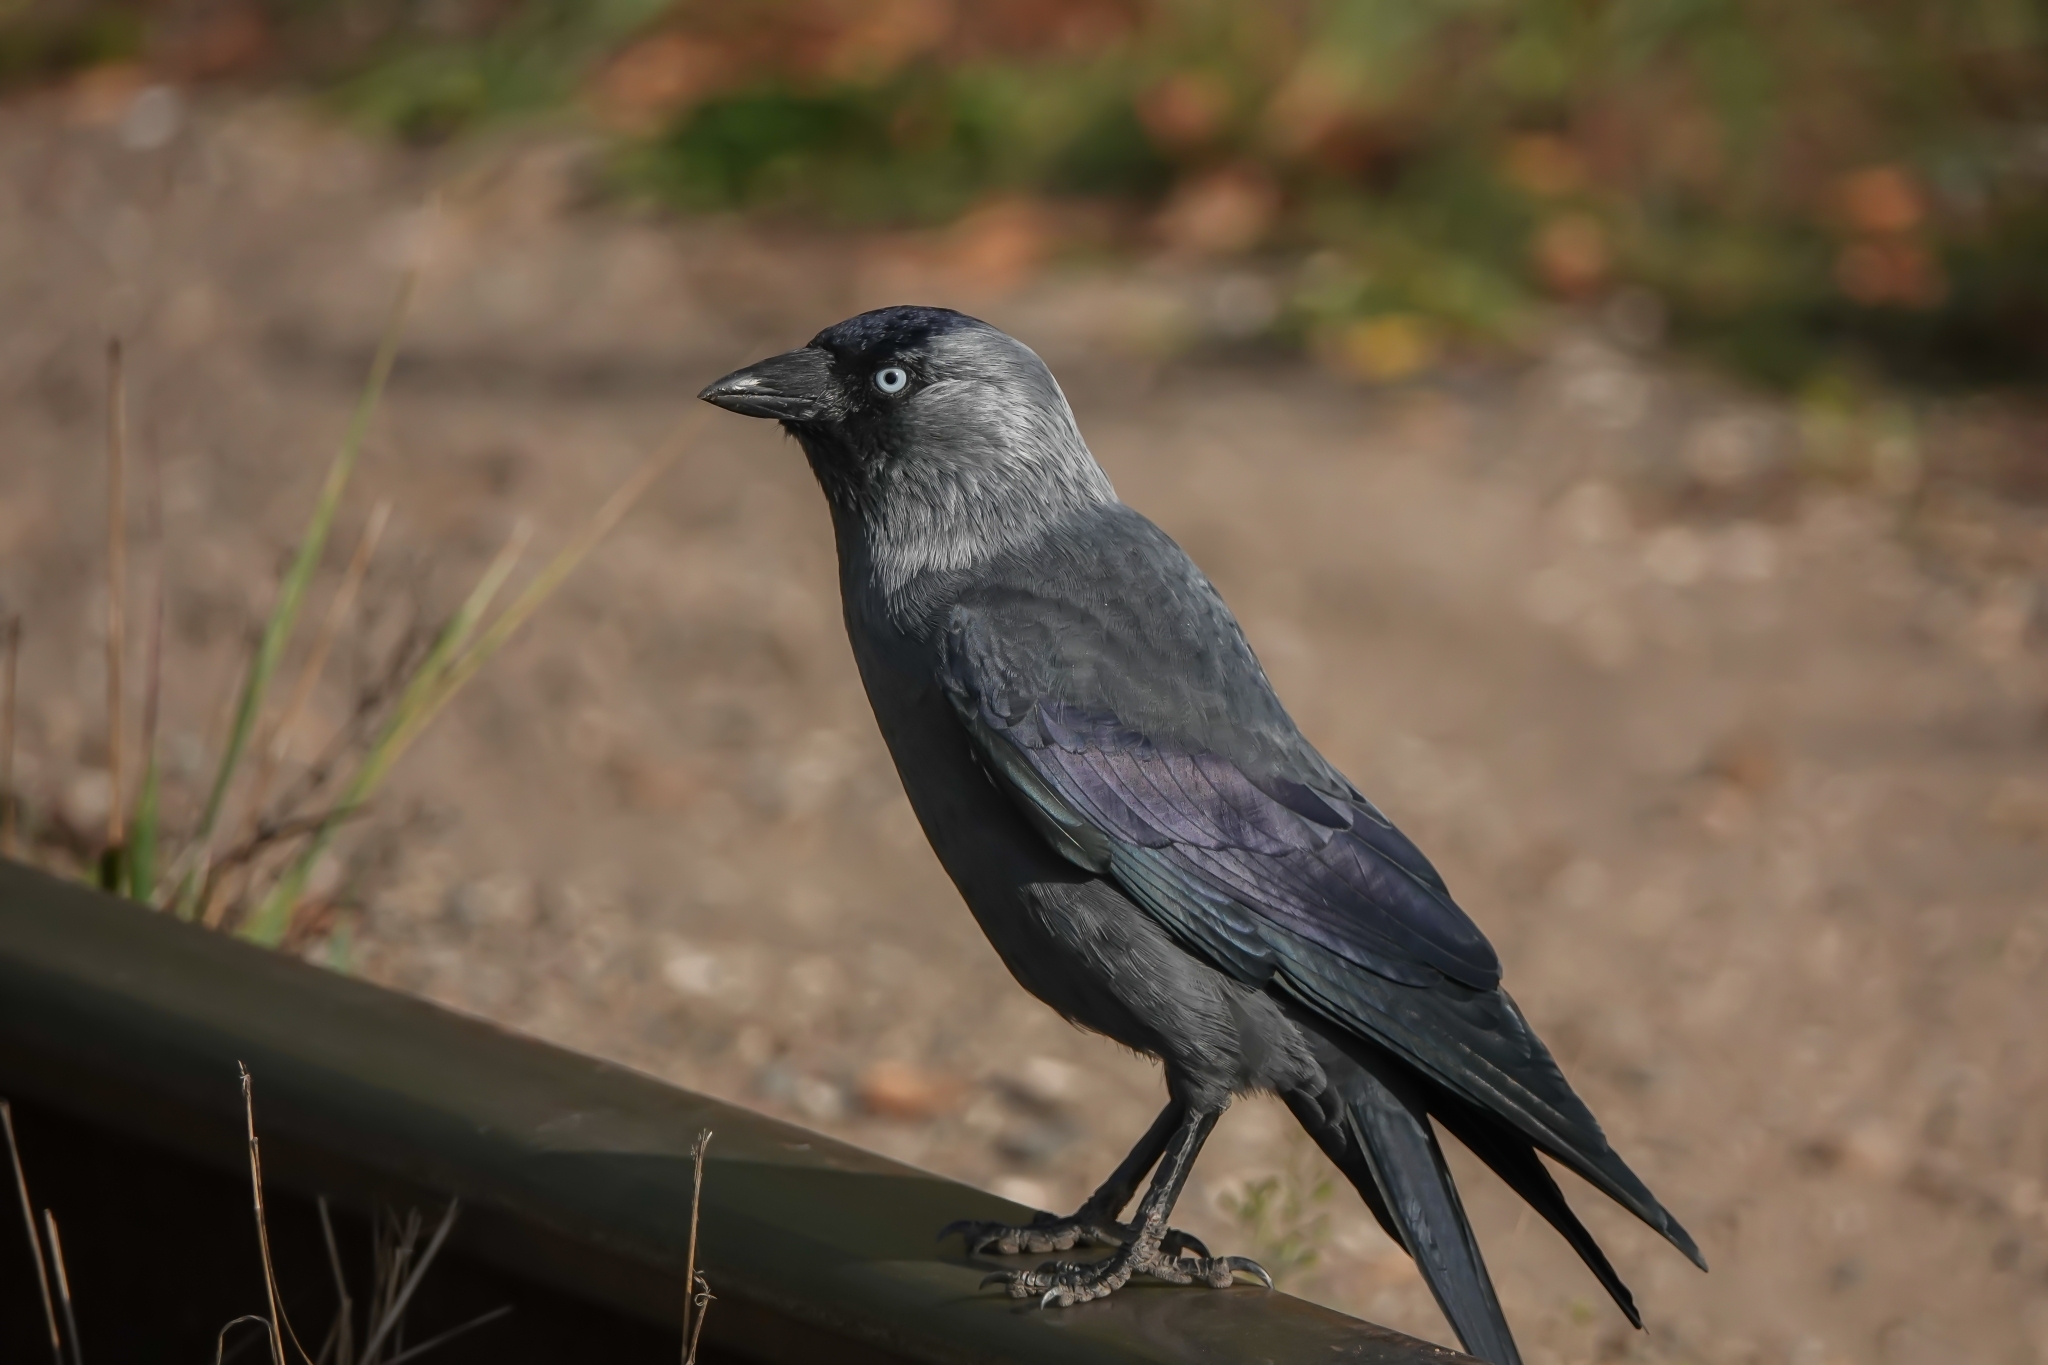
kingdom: Animalia
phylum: Chordata
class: Aves
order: Passeriformes
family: Corvidae
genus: Coloeus
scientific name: Coloeus monedula
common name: Western jackdaw
